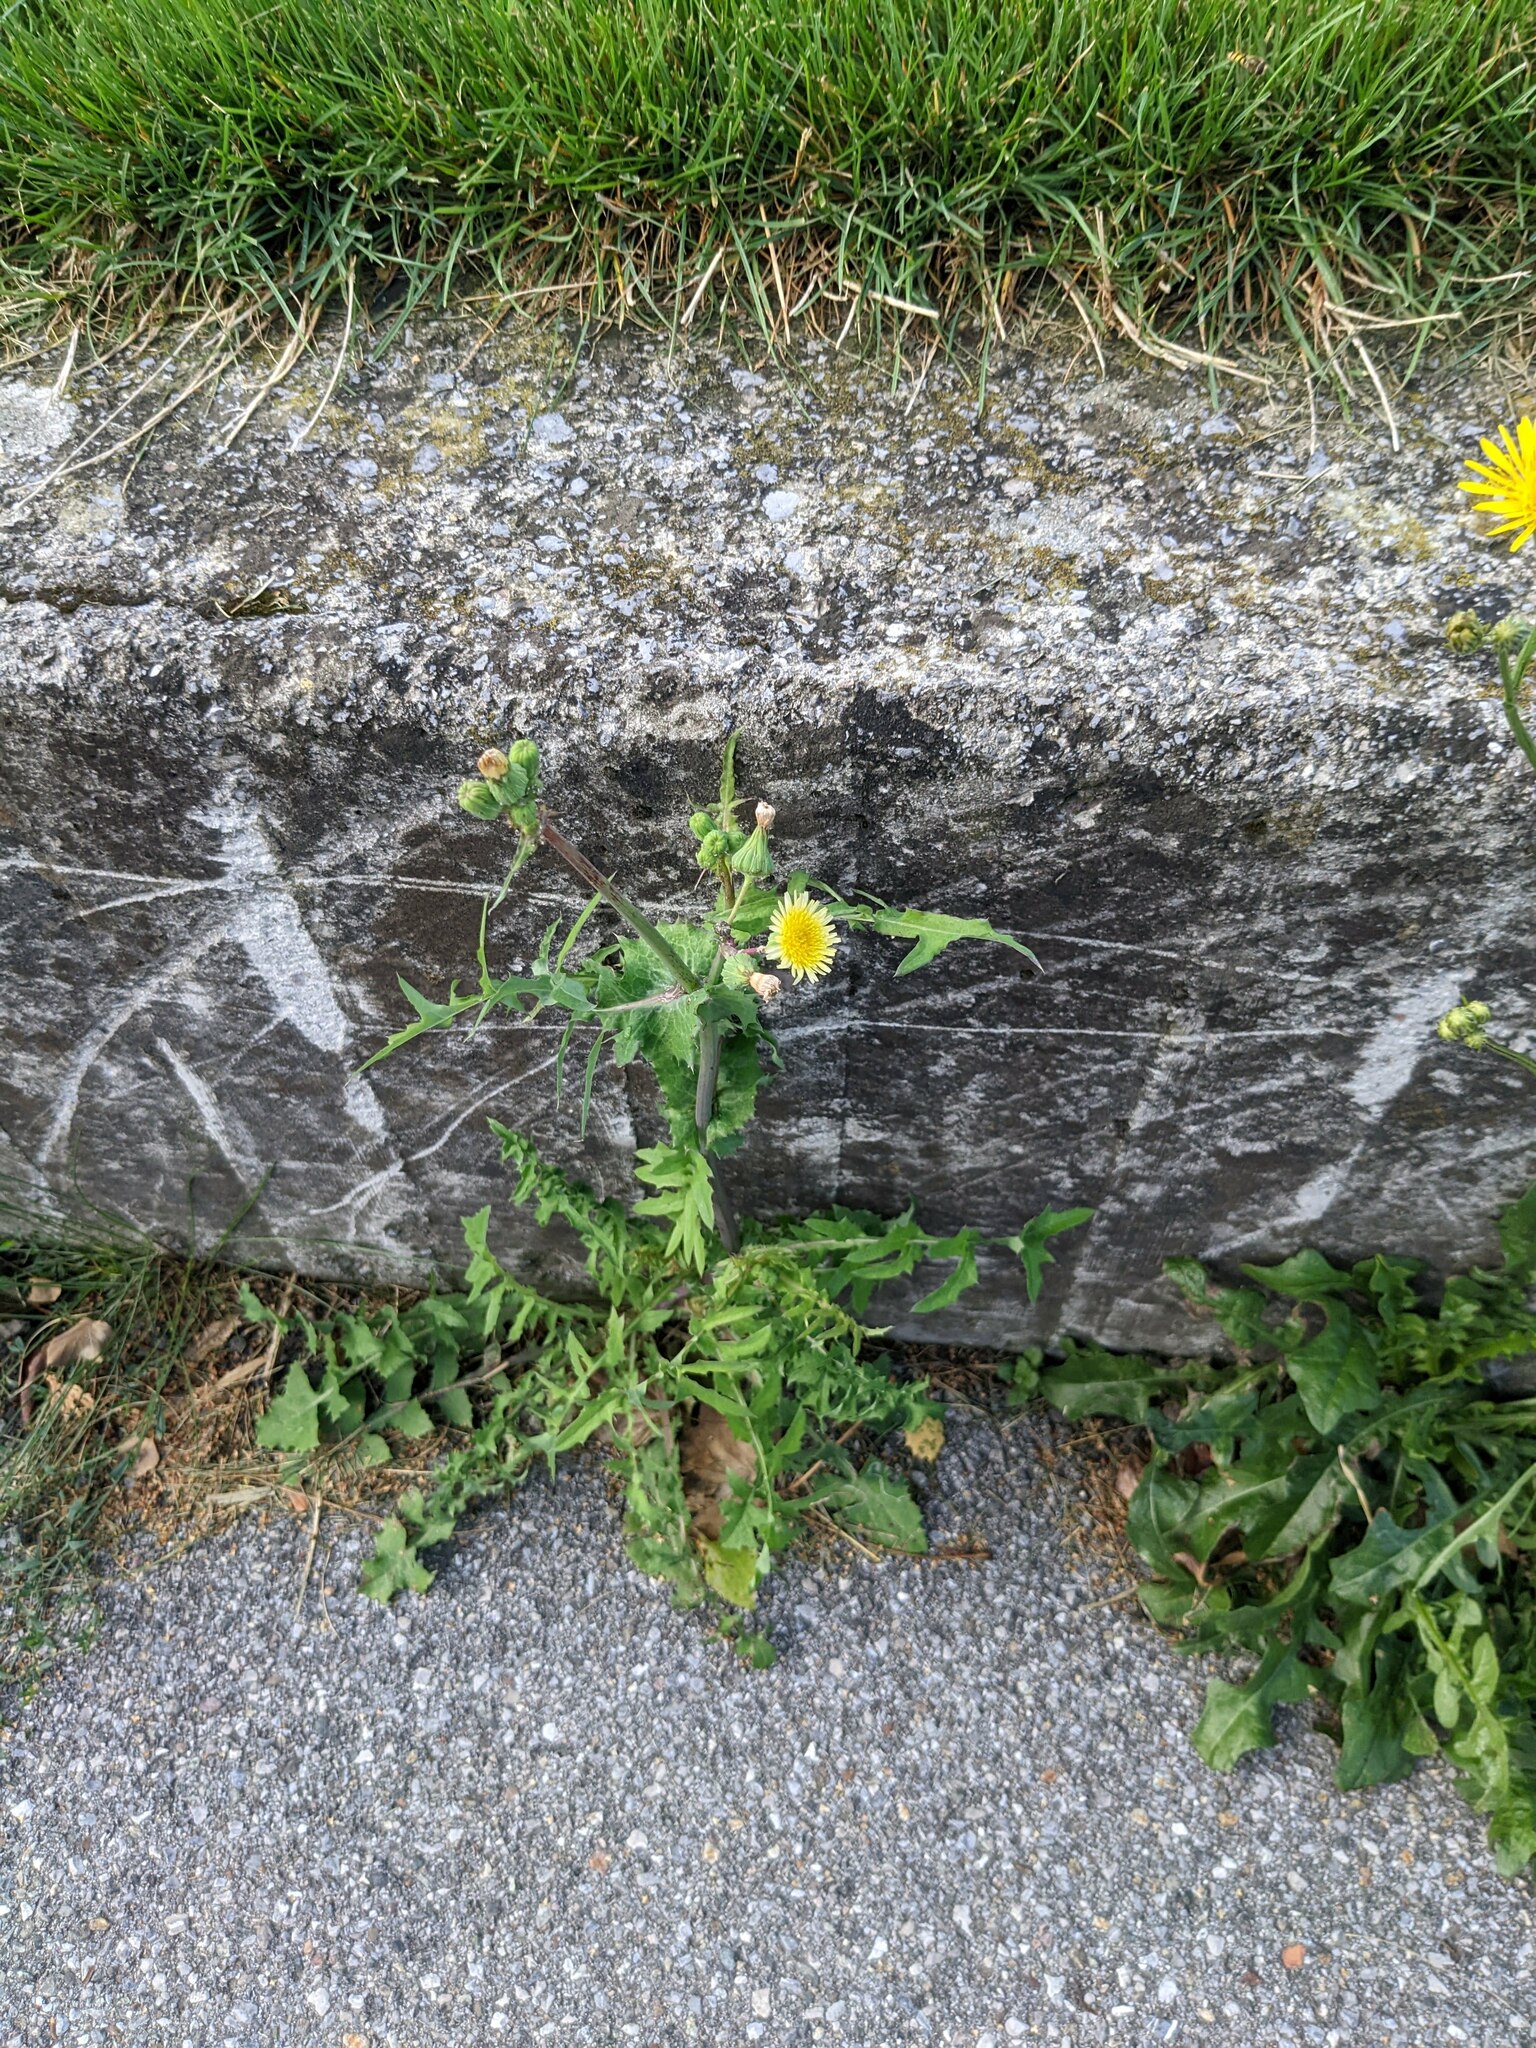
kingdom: Plantae
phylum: Tracheophyta
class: Magnoliopsida
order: Asterales
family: Asteraceae
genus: Sonchus
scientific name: Sonchus oleraceus
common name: Common sowthistle
